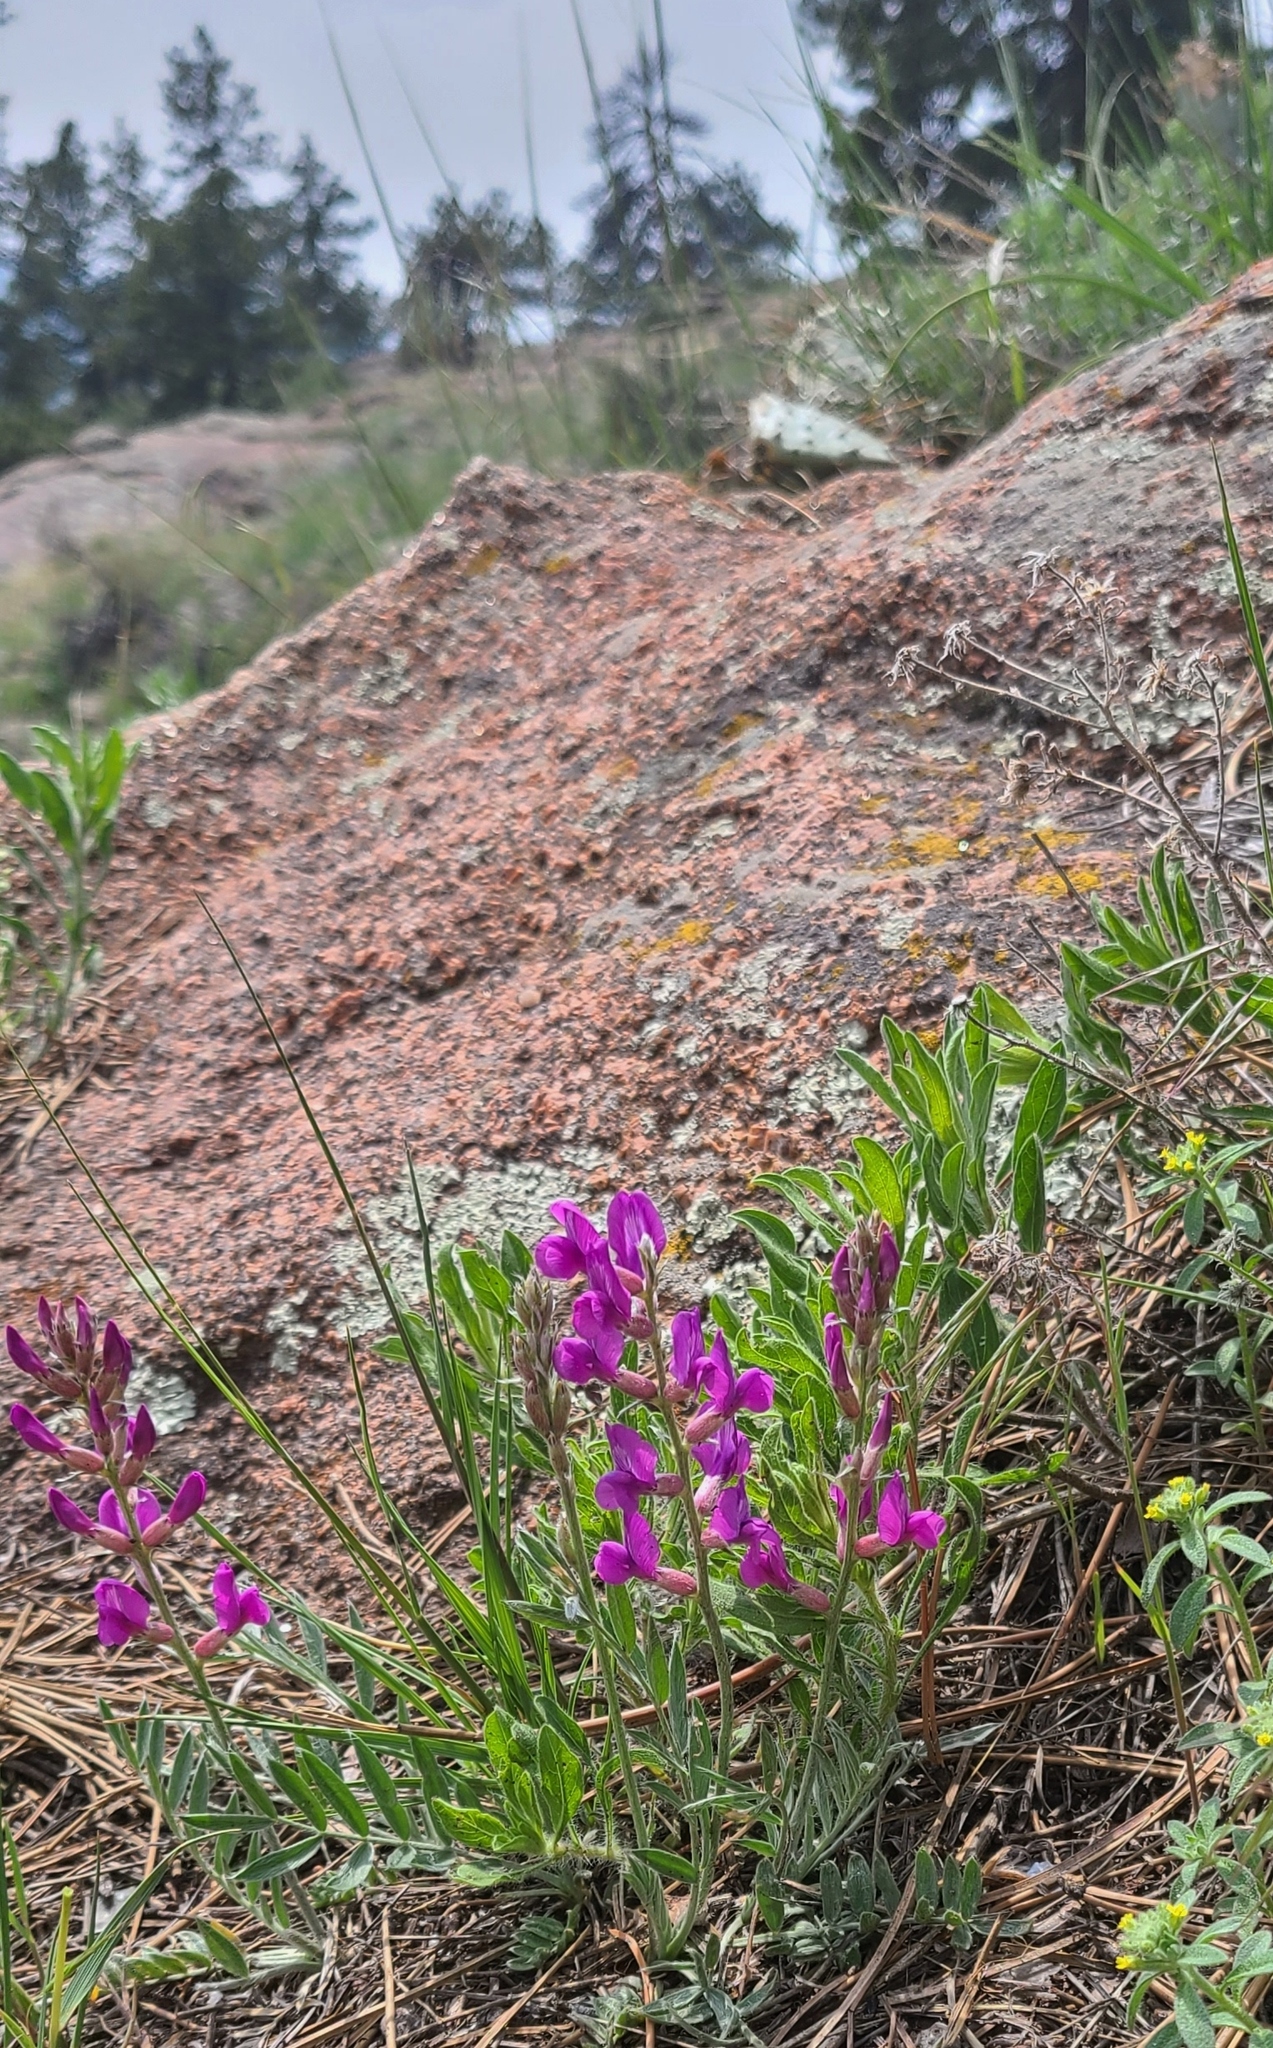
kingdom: Plantae
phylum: Tracheophyta
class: Magnoliopsida
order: Fabales
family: Fabaceae
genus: Oxytropis
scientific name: Oxytropis lambertii
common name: Purple locoweed
